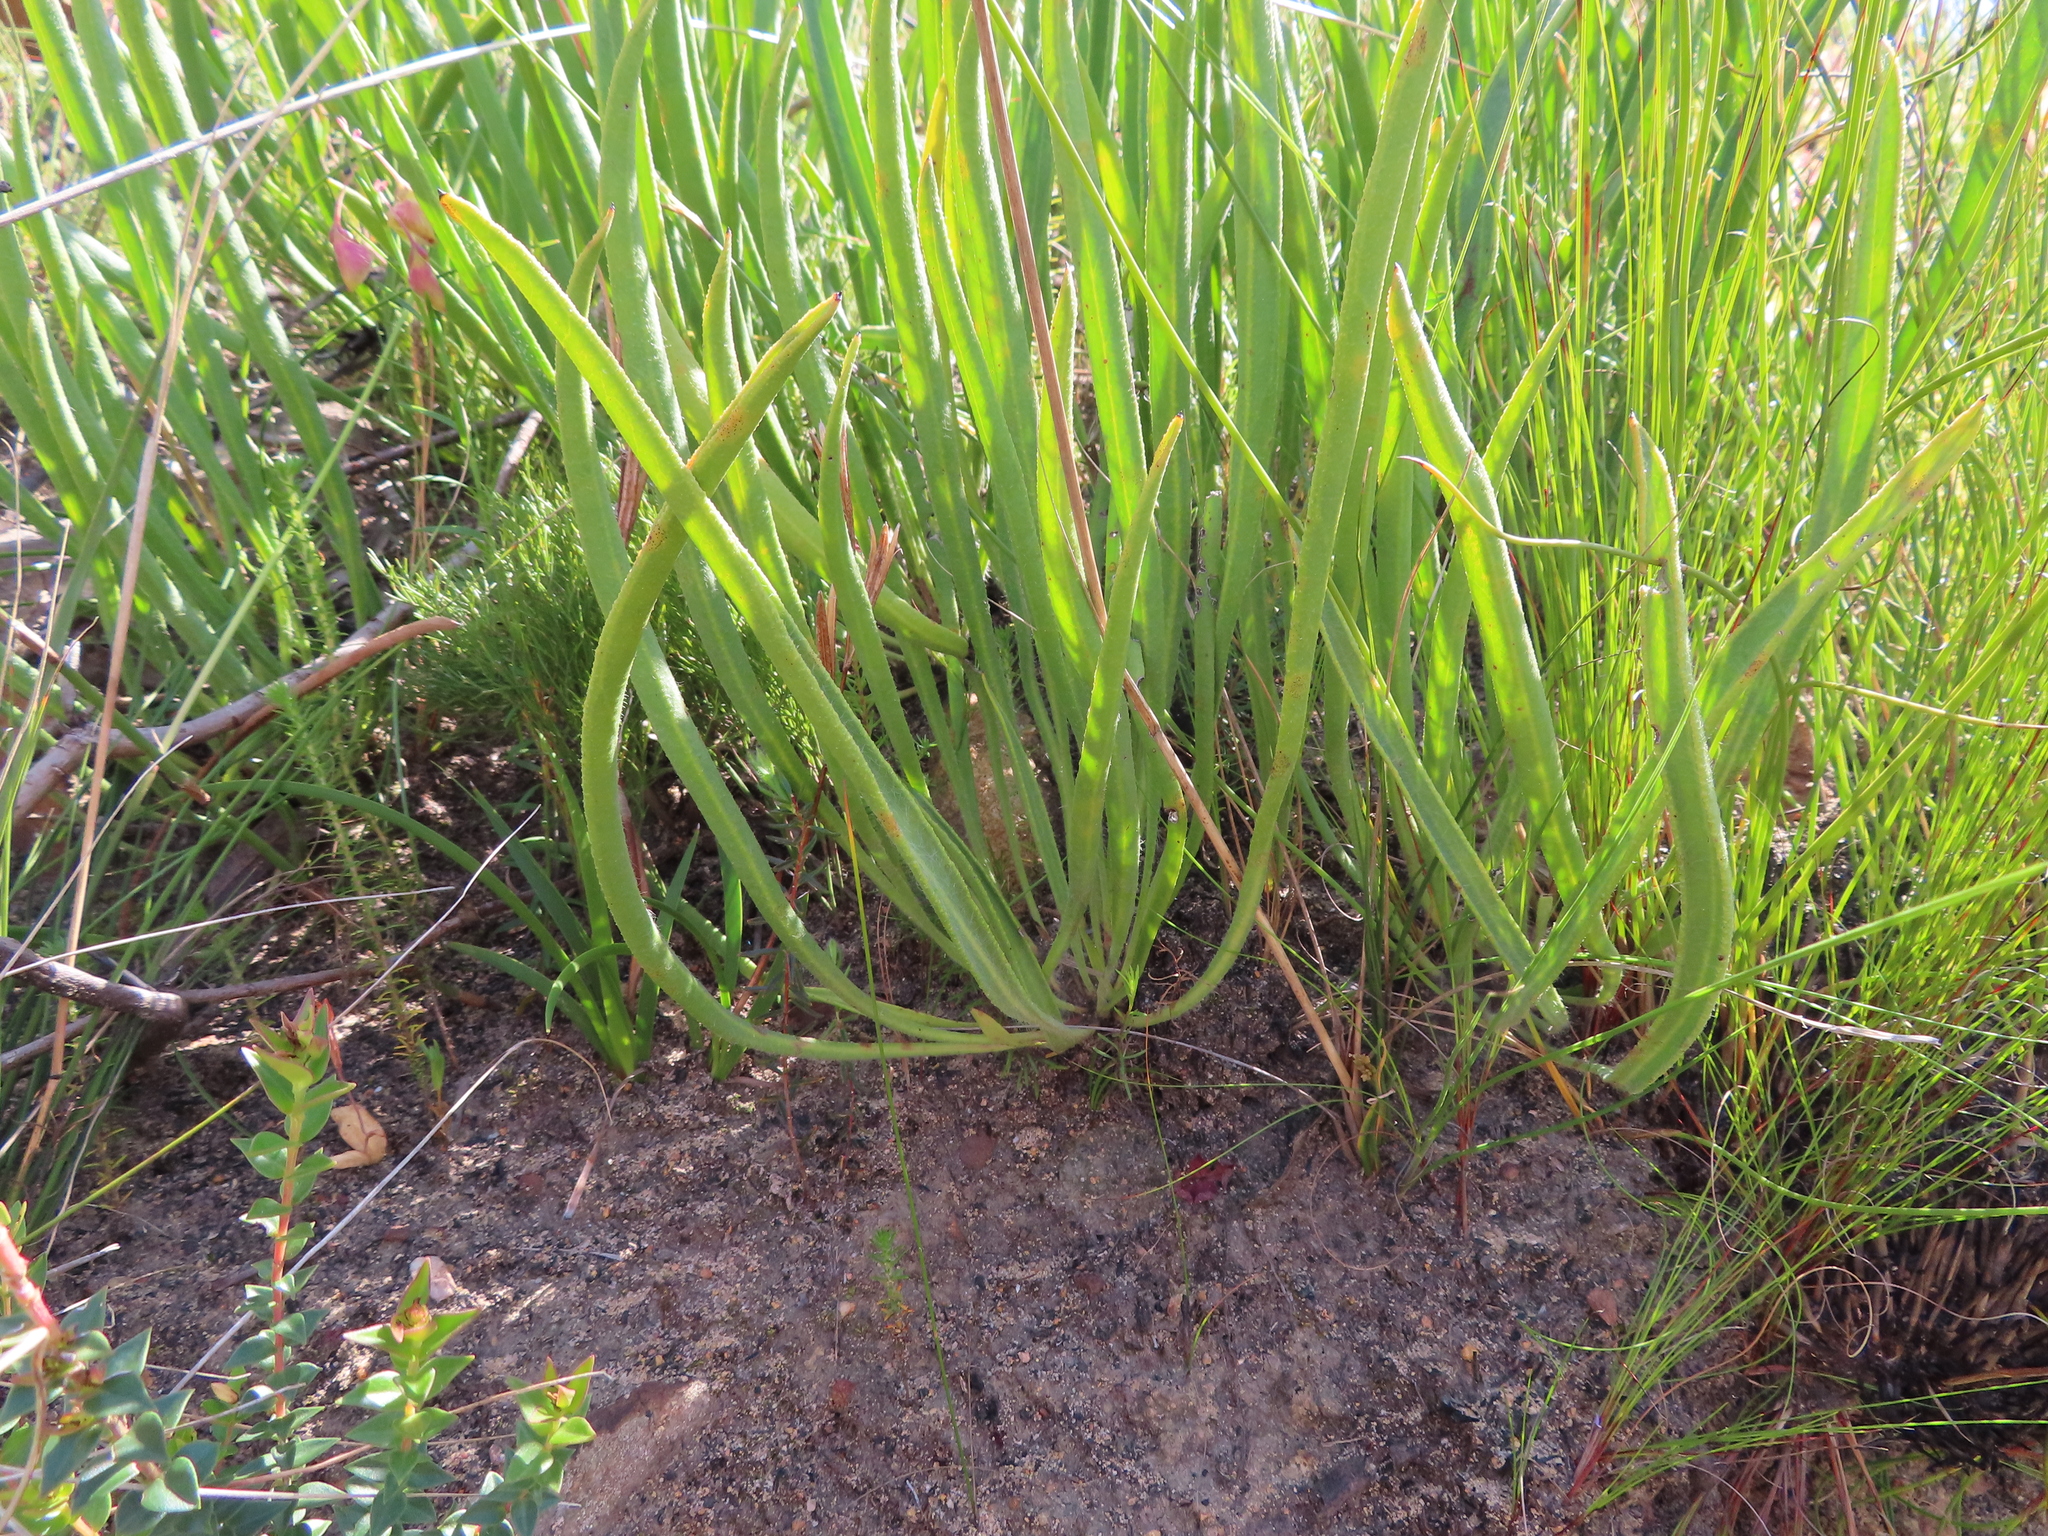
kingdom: Plantae
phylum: Tracheophyta
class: Magnoliopsida
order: Proteales
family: Proteaceae
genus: Protea
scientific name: Protea scabra
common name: Sandpaper-leaf sugarbush
